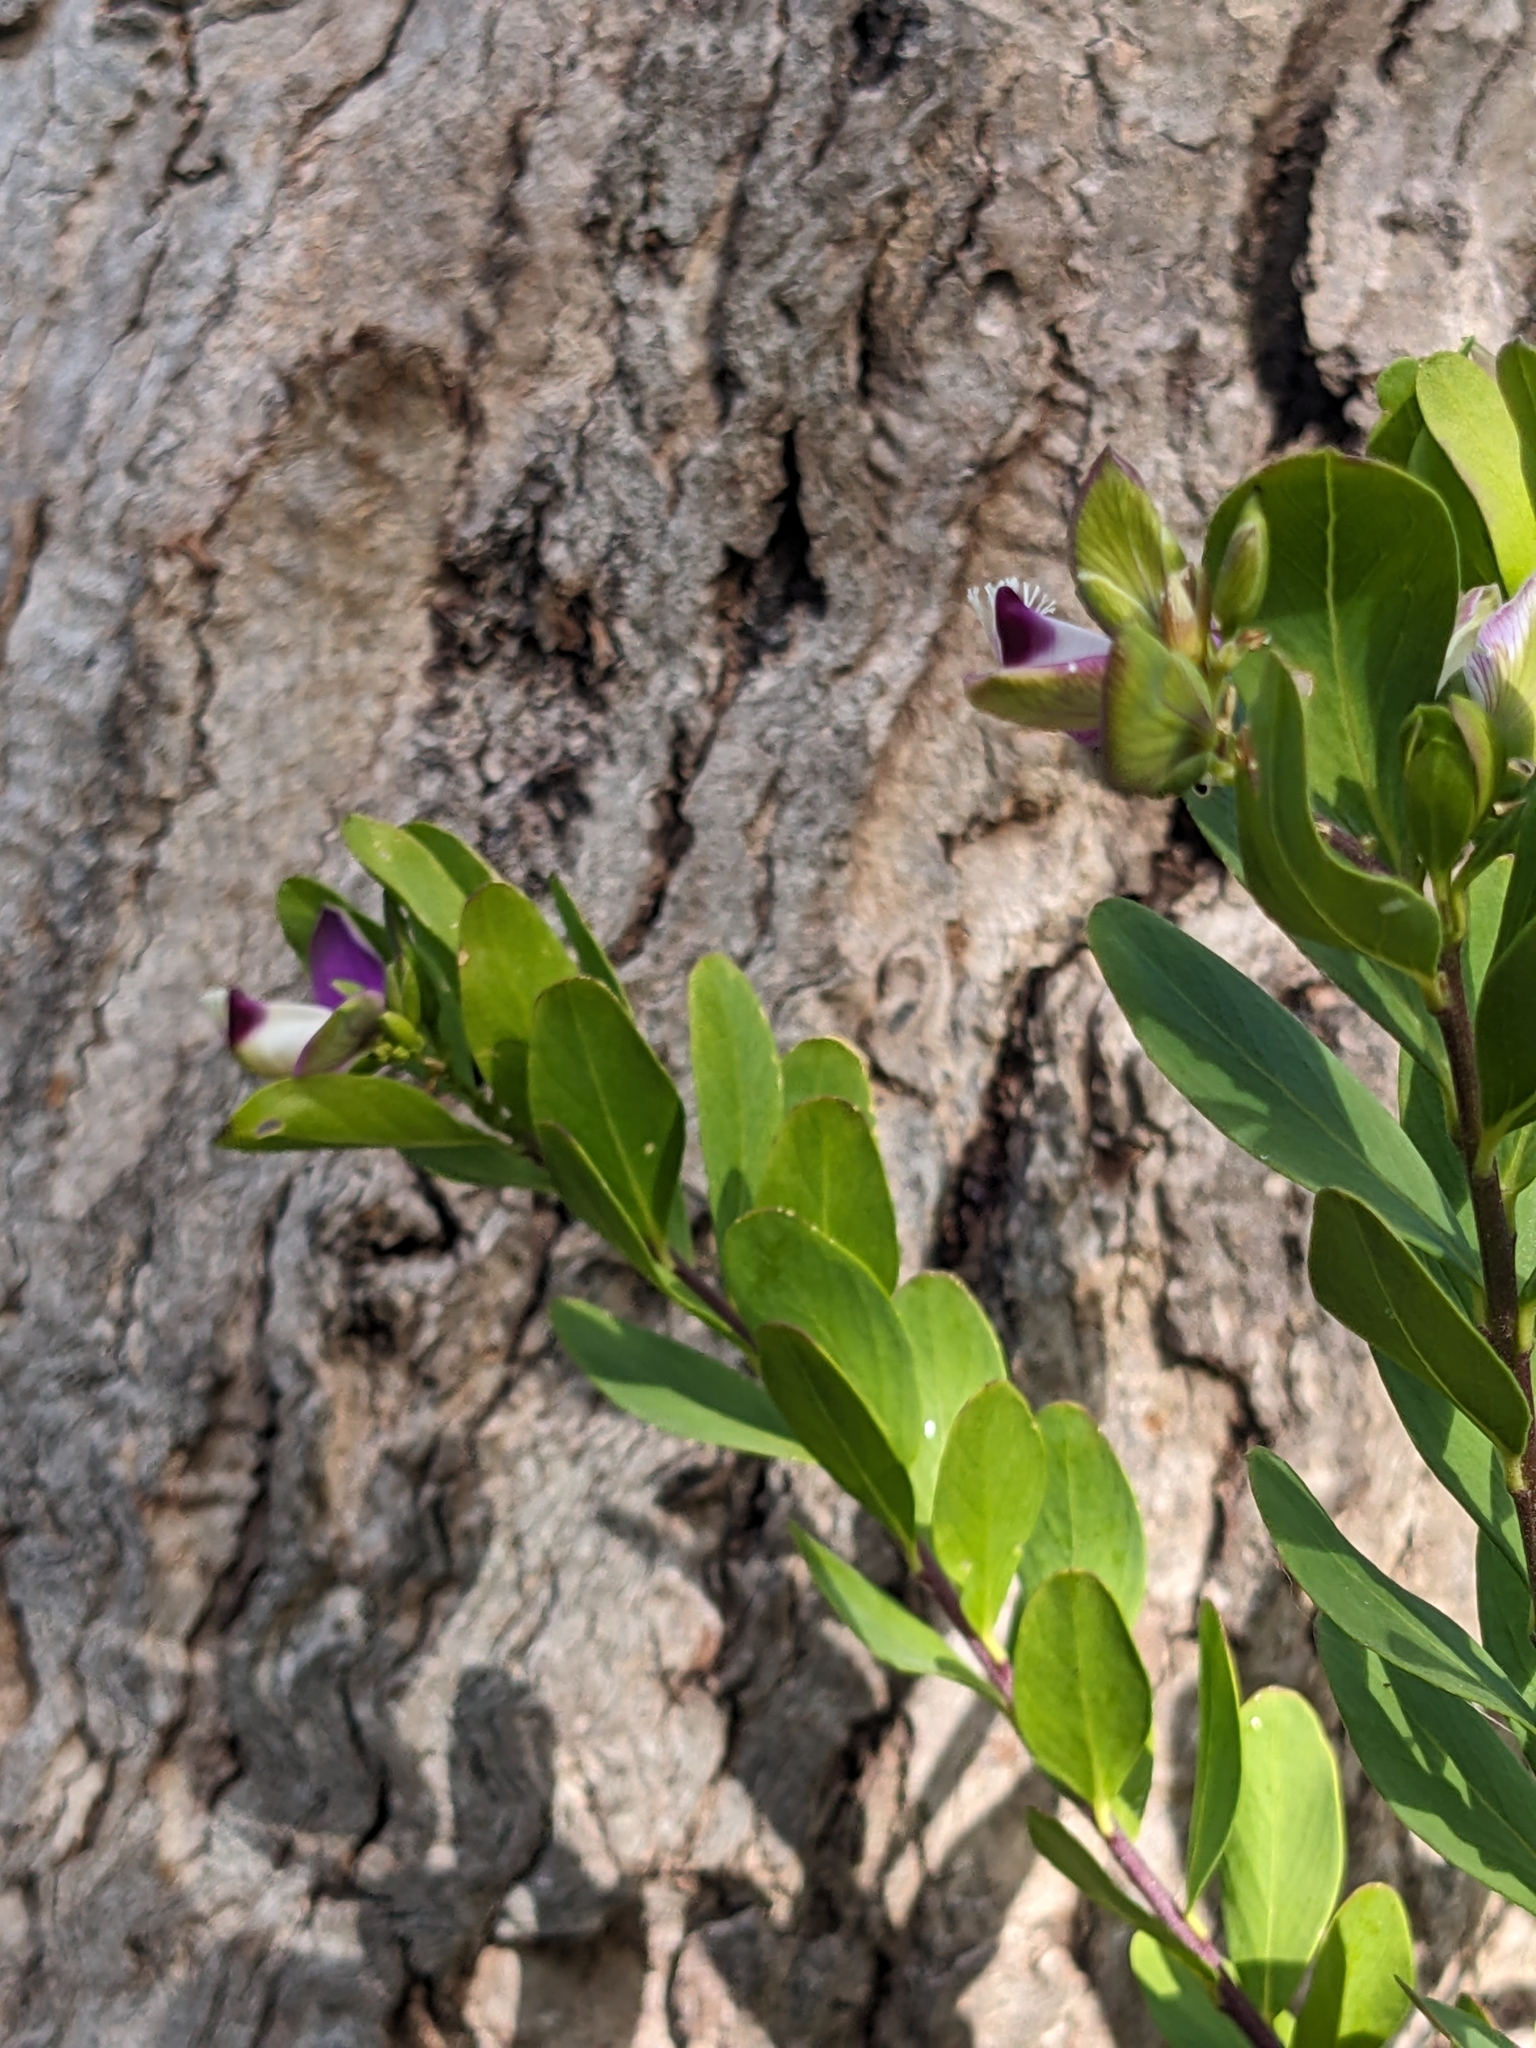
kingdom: Plantae
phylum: Tracheophyta
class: Magnoliopsida
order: Fabales
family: Polygalaceae
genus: Polygala
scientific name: Polygala myrtifolia
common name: Myrtle-leaf milkwort
